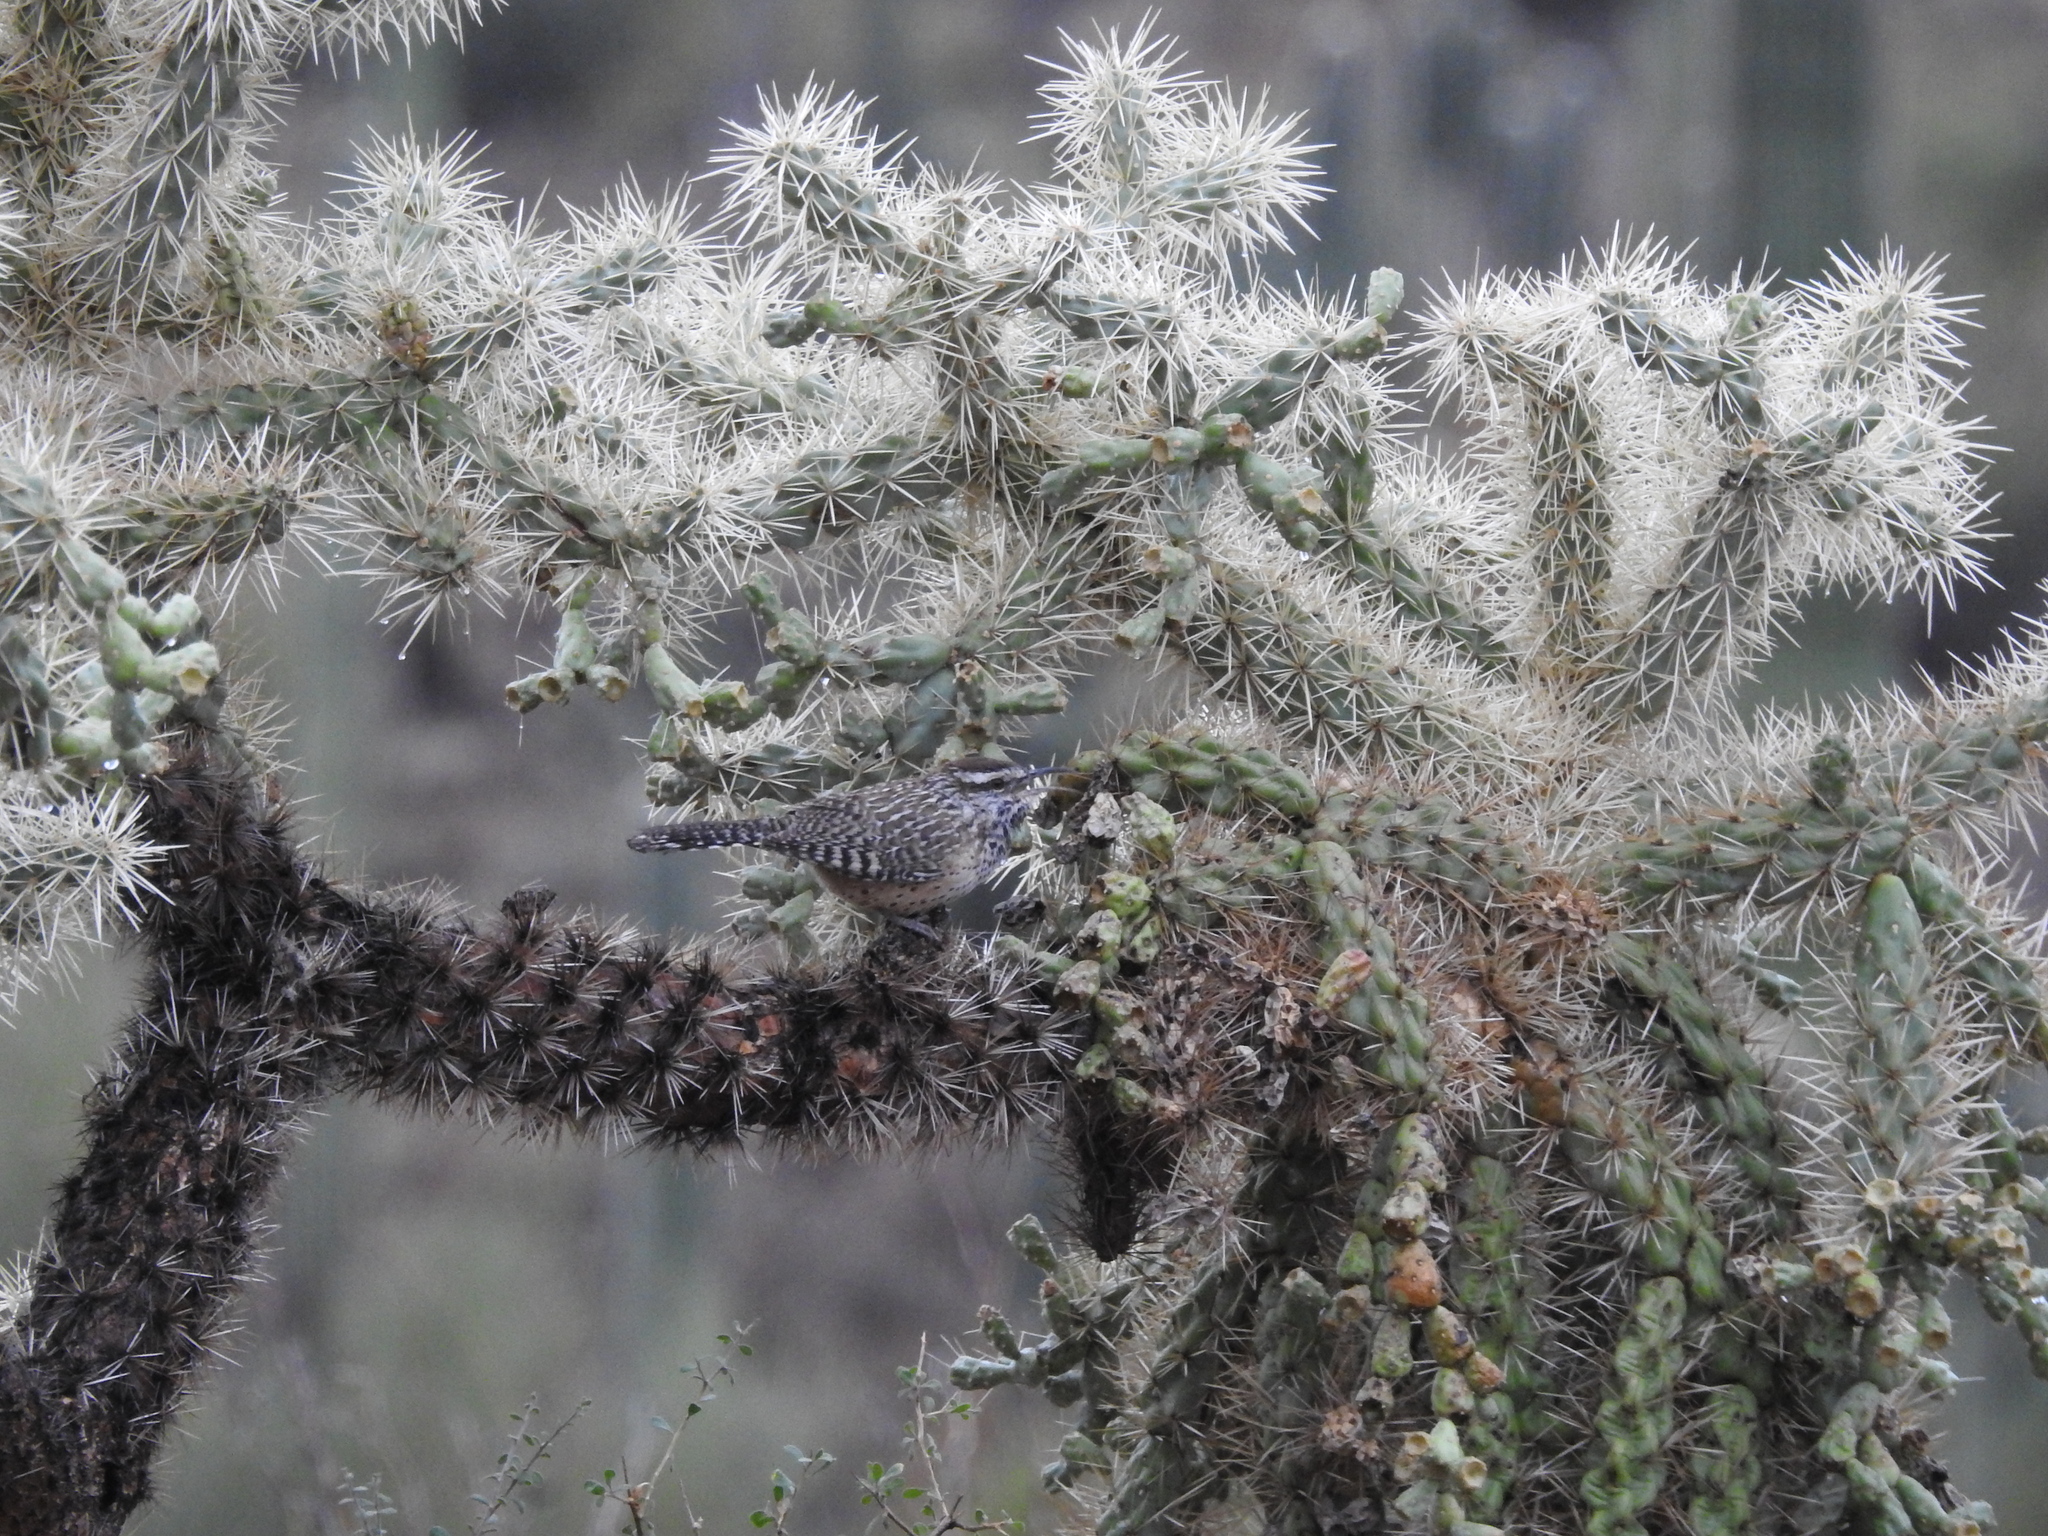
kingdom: Animalia
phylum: Chordata
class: Aves
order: Passeriformes
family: Troglodytidae
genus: Campylorhynchus
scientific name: Campylorhynchus brunneicapillus
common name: Cactus wren
